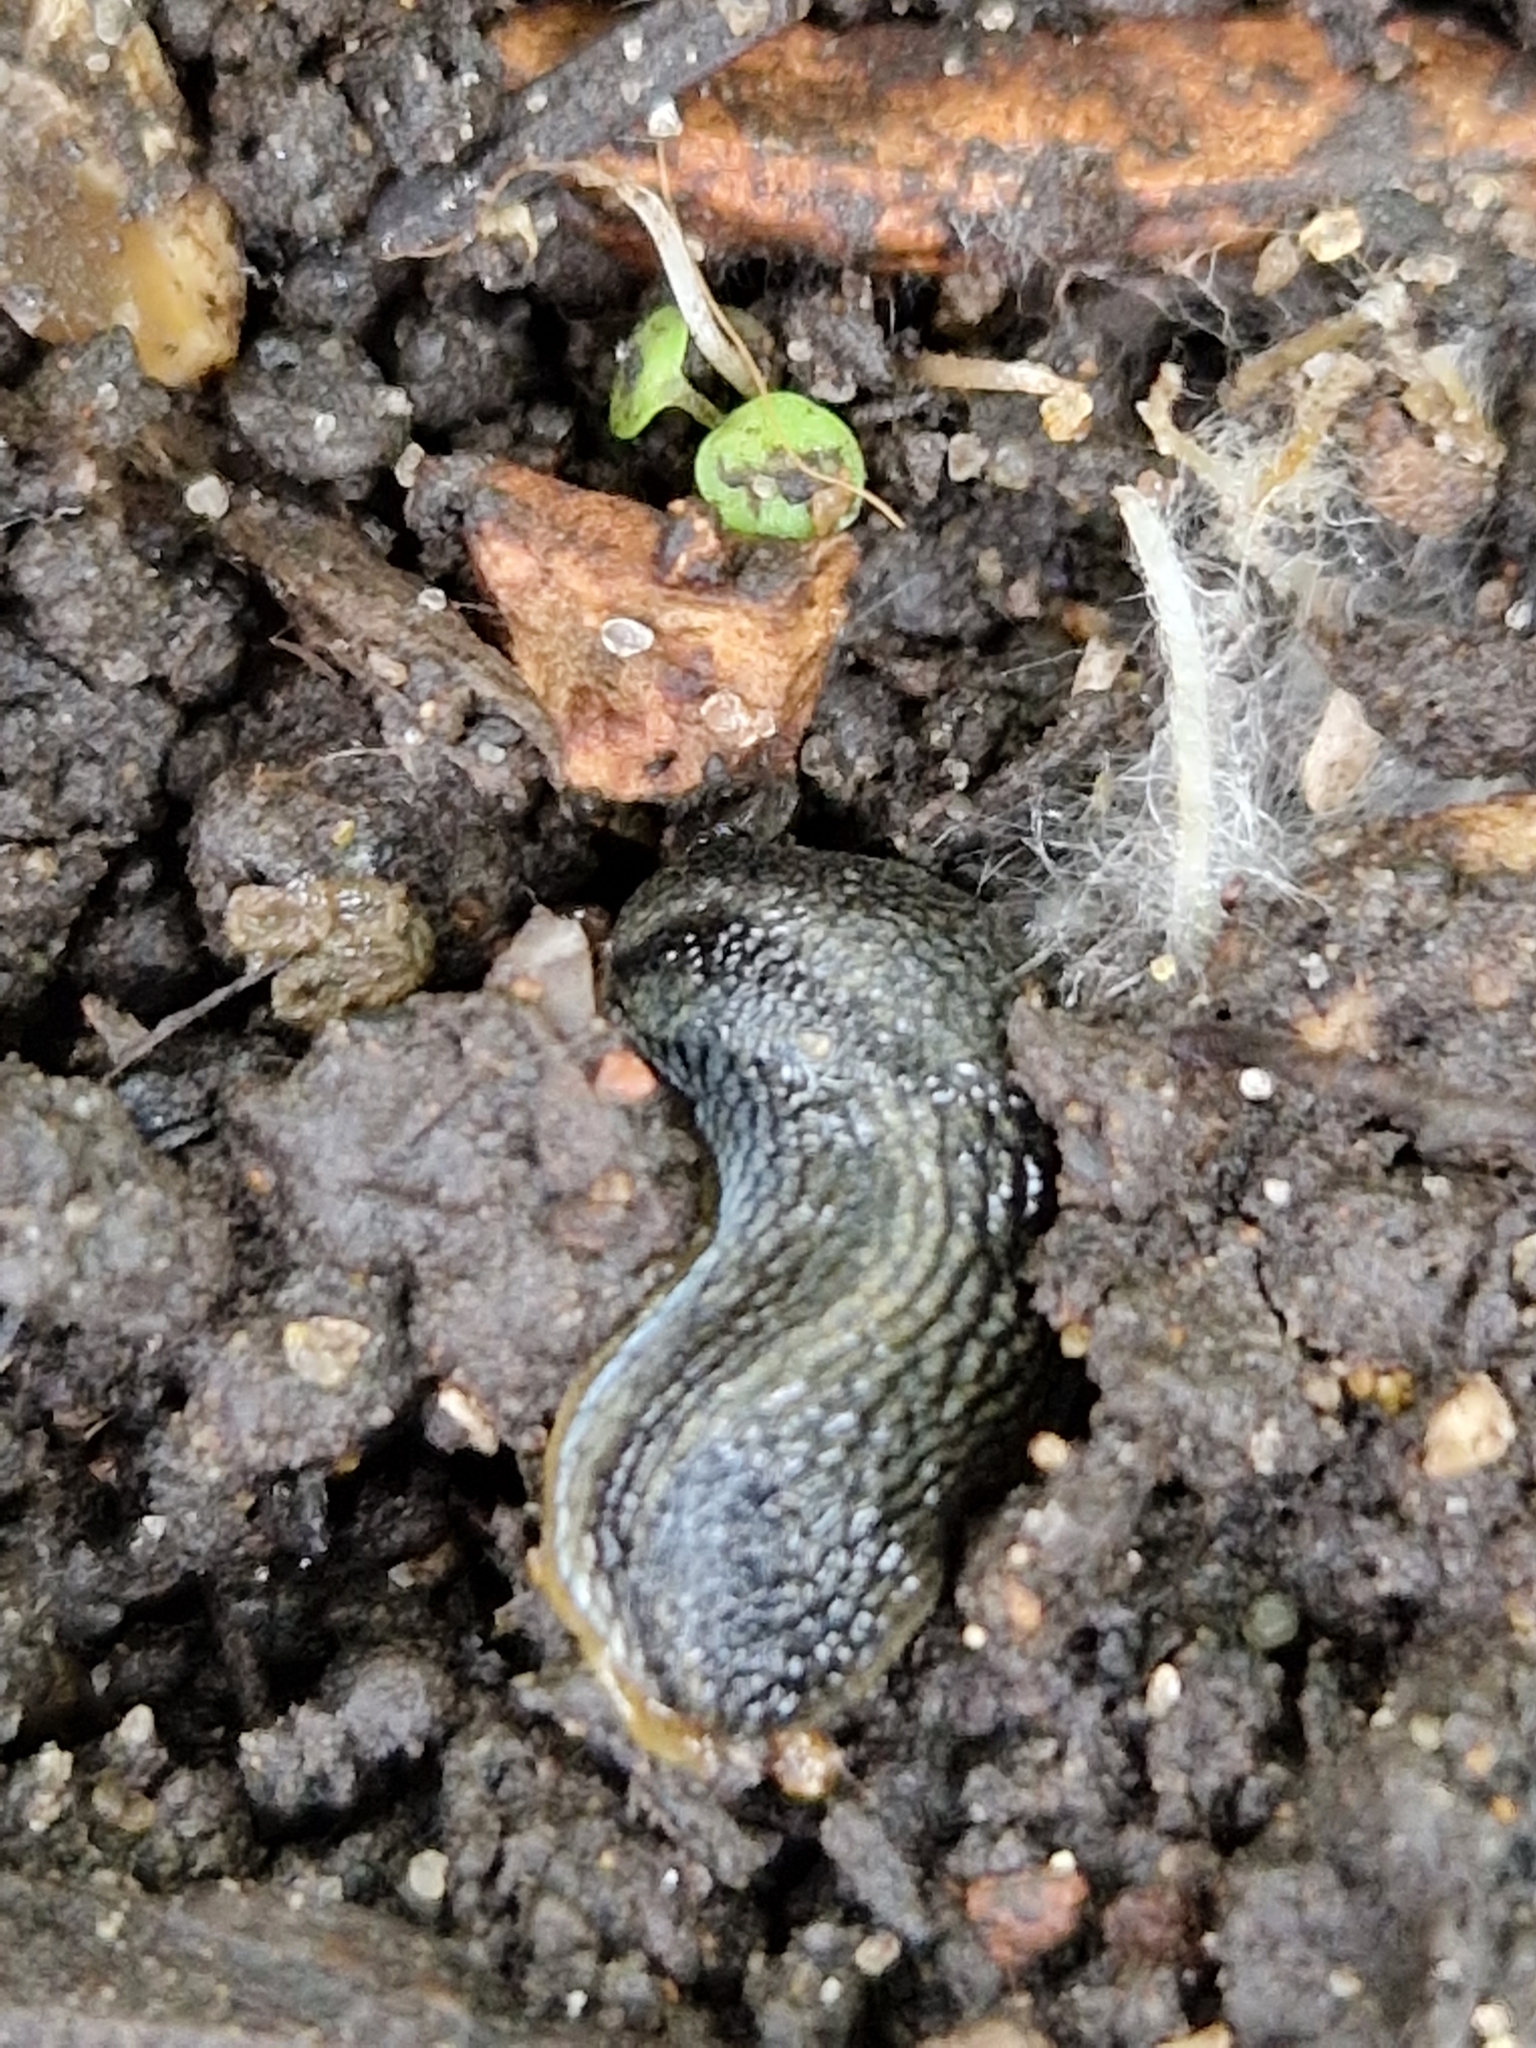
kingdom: Animalia
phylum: Mollusca
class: Gastropoda
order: Stylommatophora
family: Arionidae
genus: Arion
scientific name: Arion hortensis
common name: Garden arion
